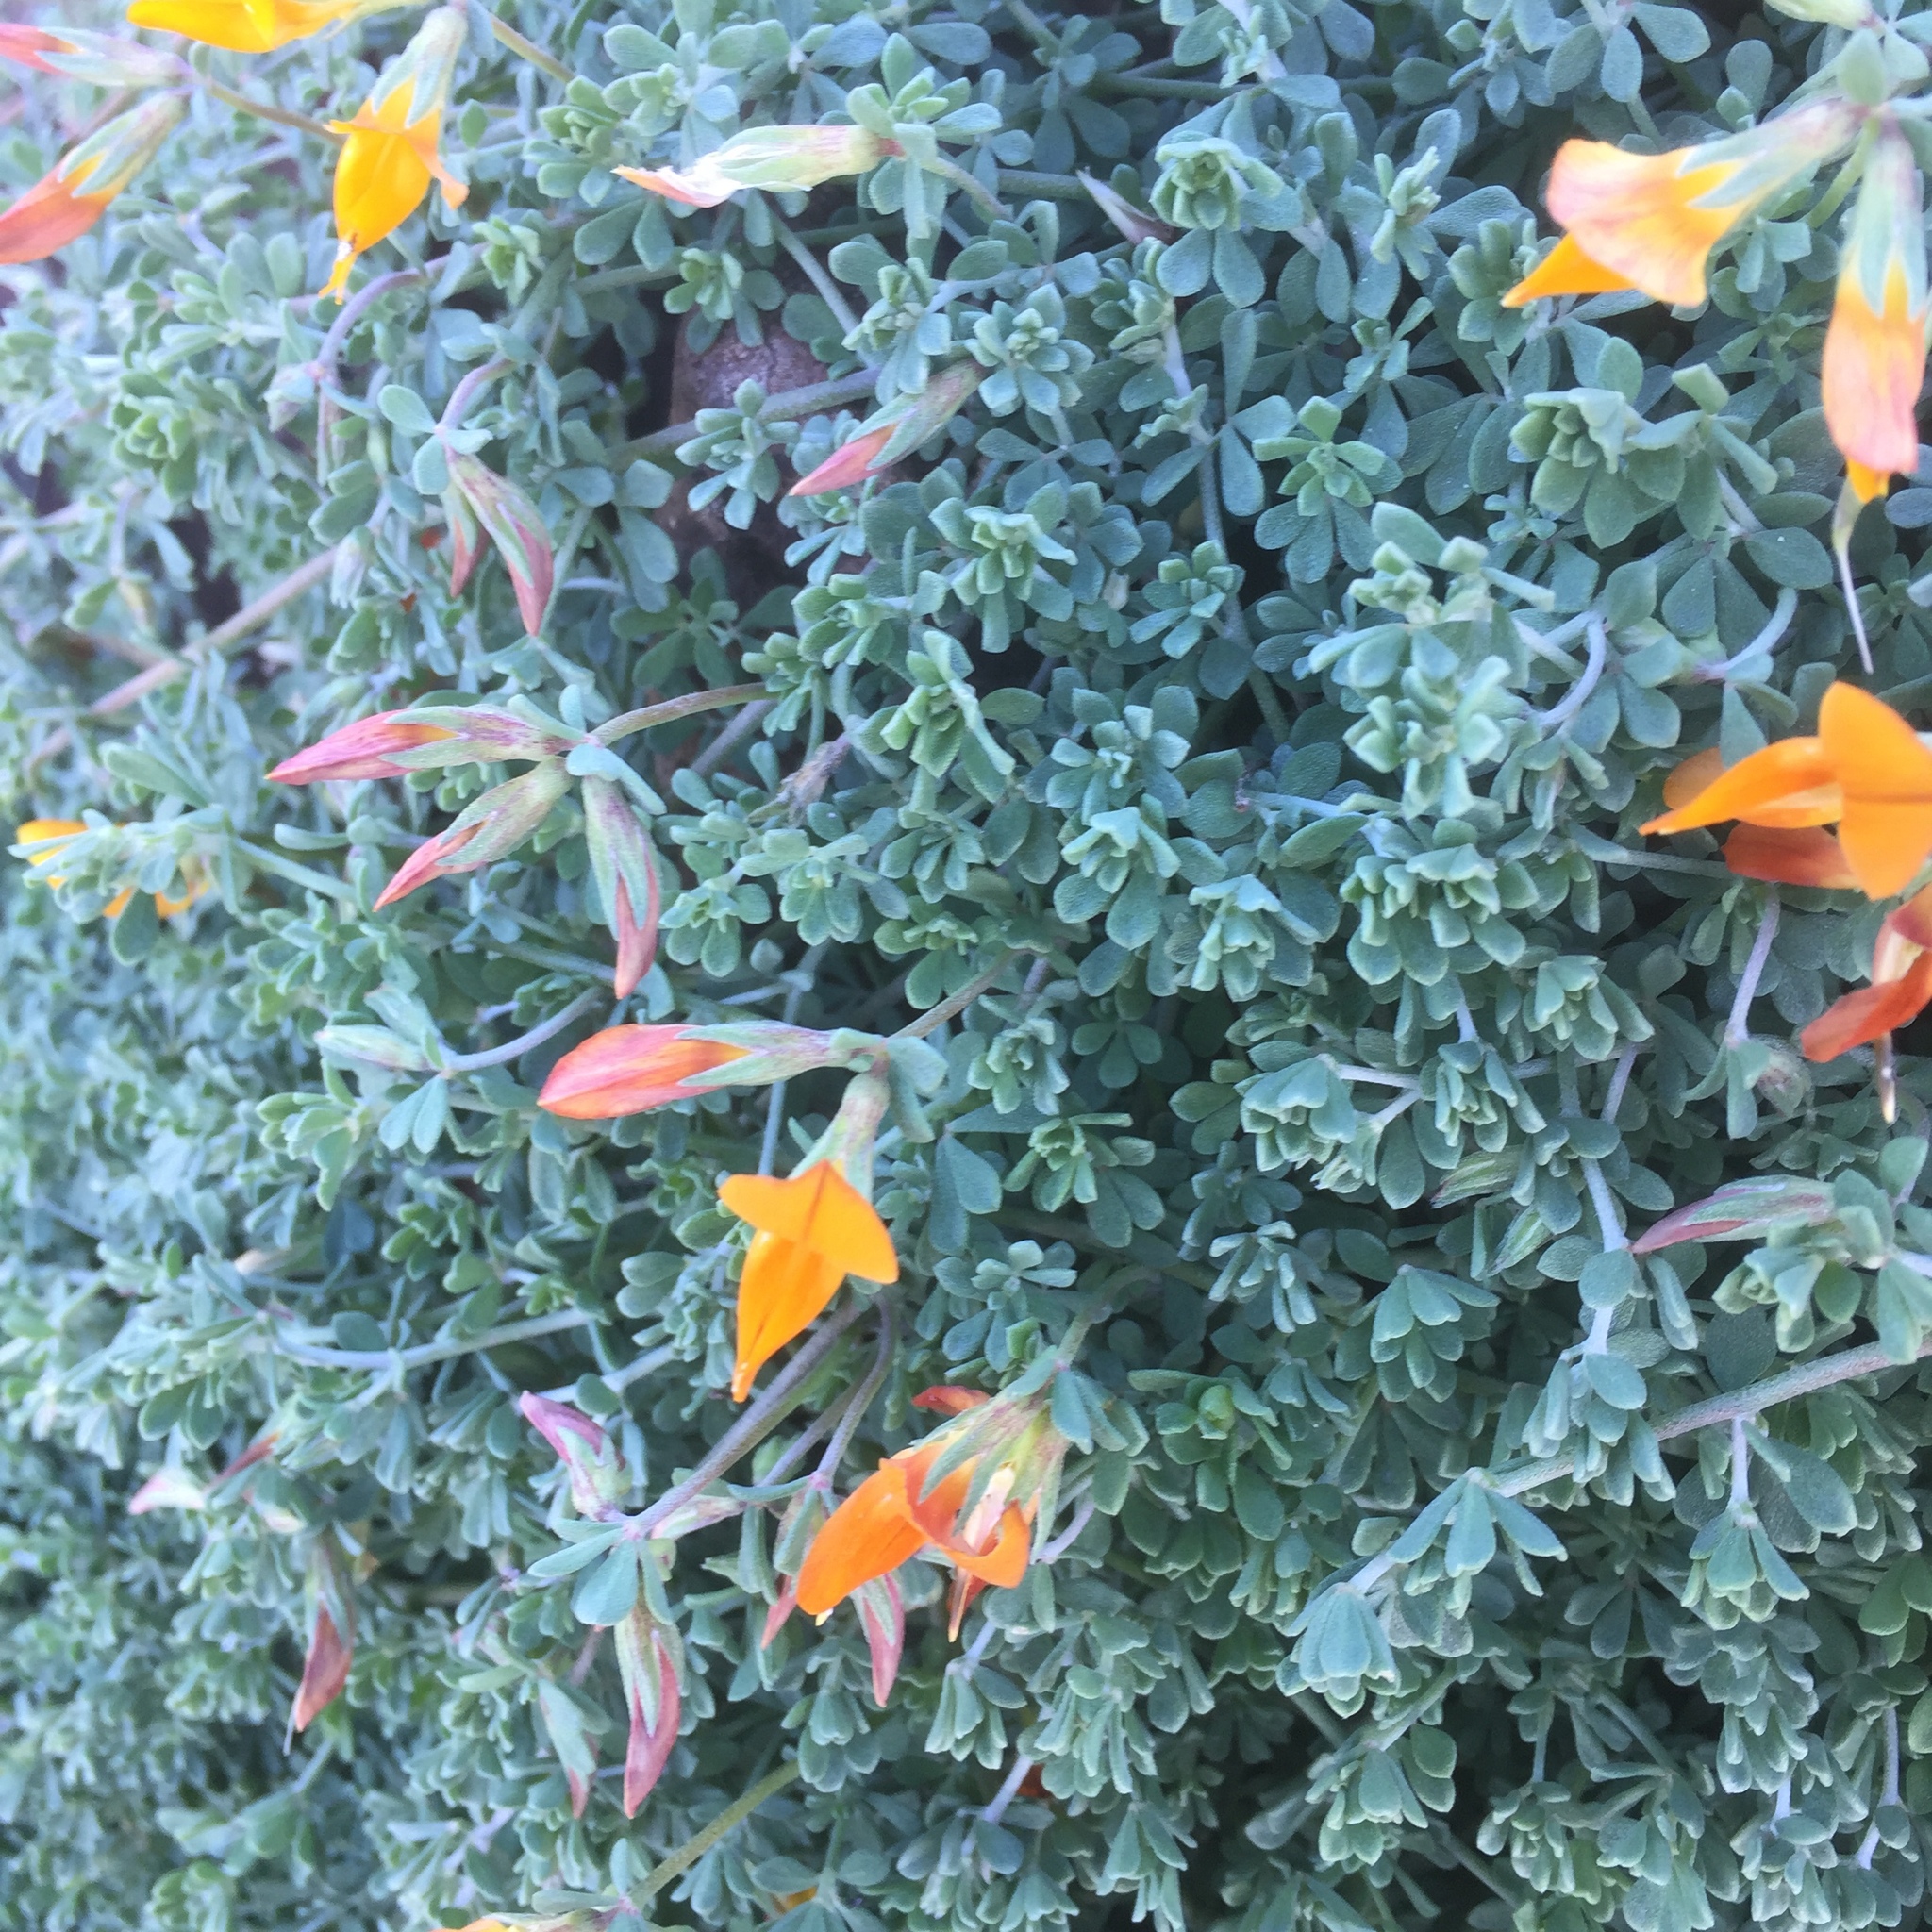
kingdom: Plantae
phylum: Tracheophyta
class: Magnoliopsida
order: Fabales
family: Fabaceae
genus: Lotus
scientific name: Lotus glaucus
